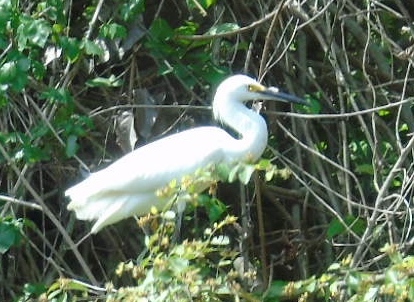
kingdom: Animalia
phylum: Chordata
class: Aves
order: Pelecaniformes
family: Ardeidae
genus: Egretta
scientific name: Egretta thula
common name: Snowy egret
